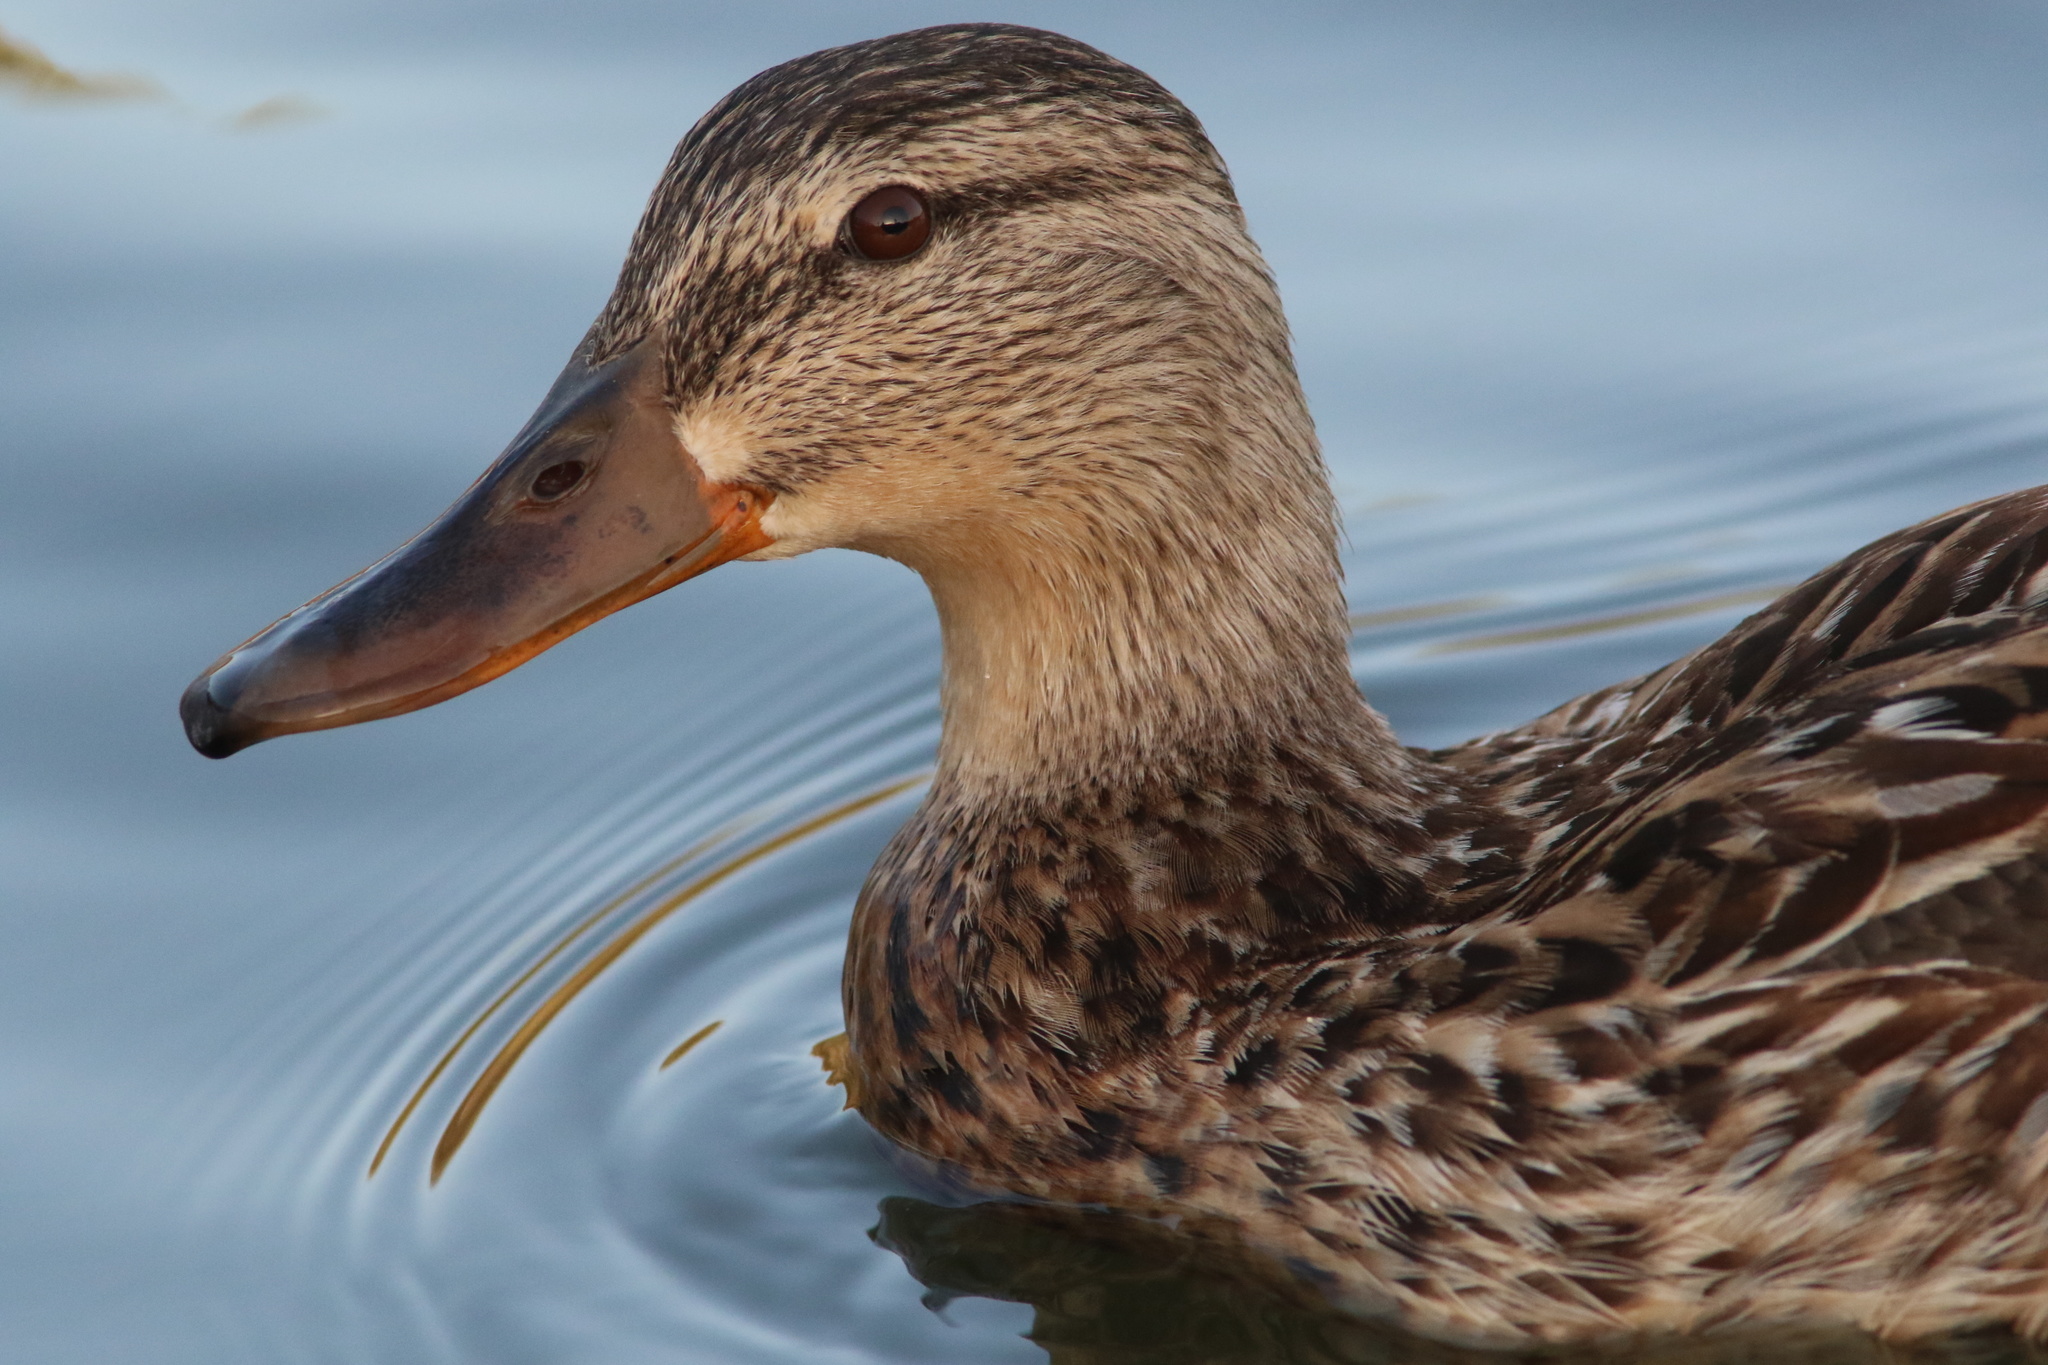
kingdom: Animalia
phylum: Chordata
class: Aves
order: Anseriformes
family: Anatidae
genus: Anas
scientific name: Anas platyrhynchos
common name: Mallard
